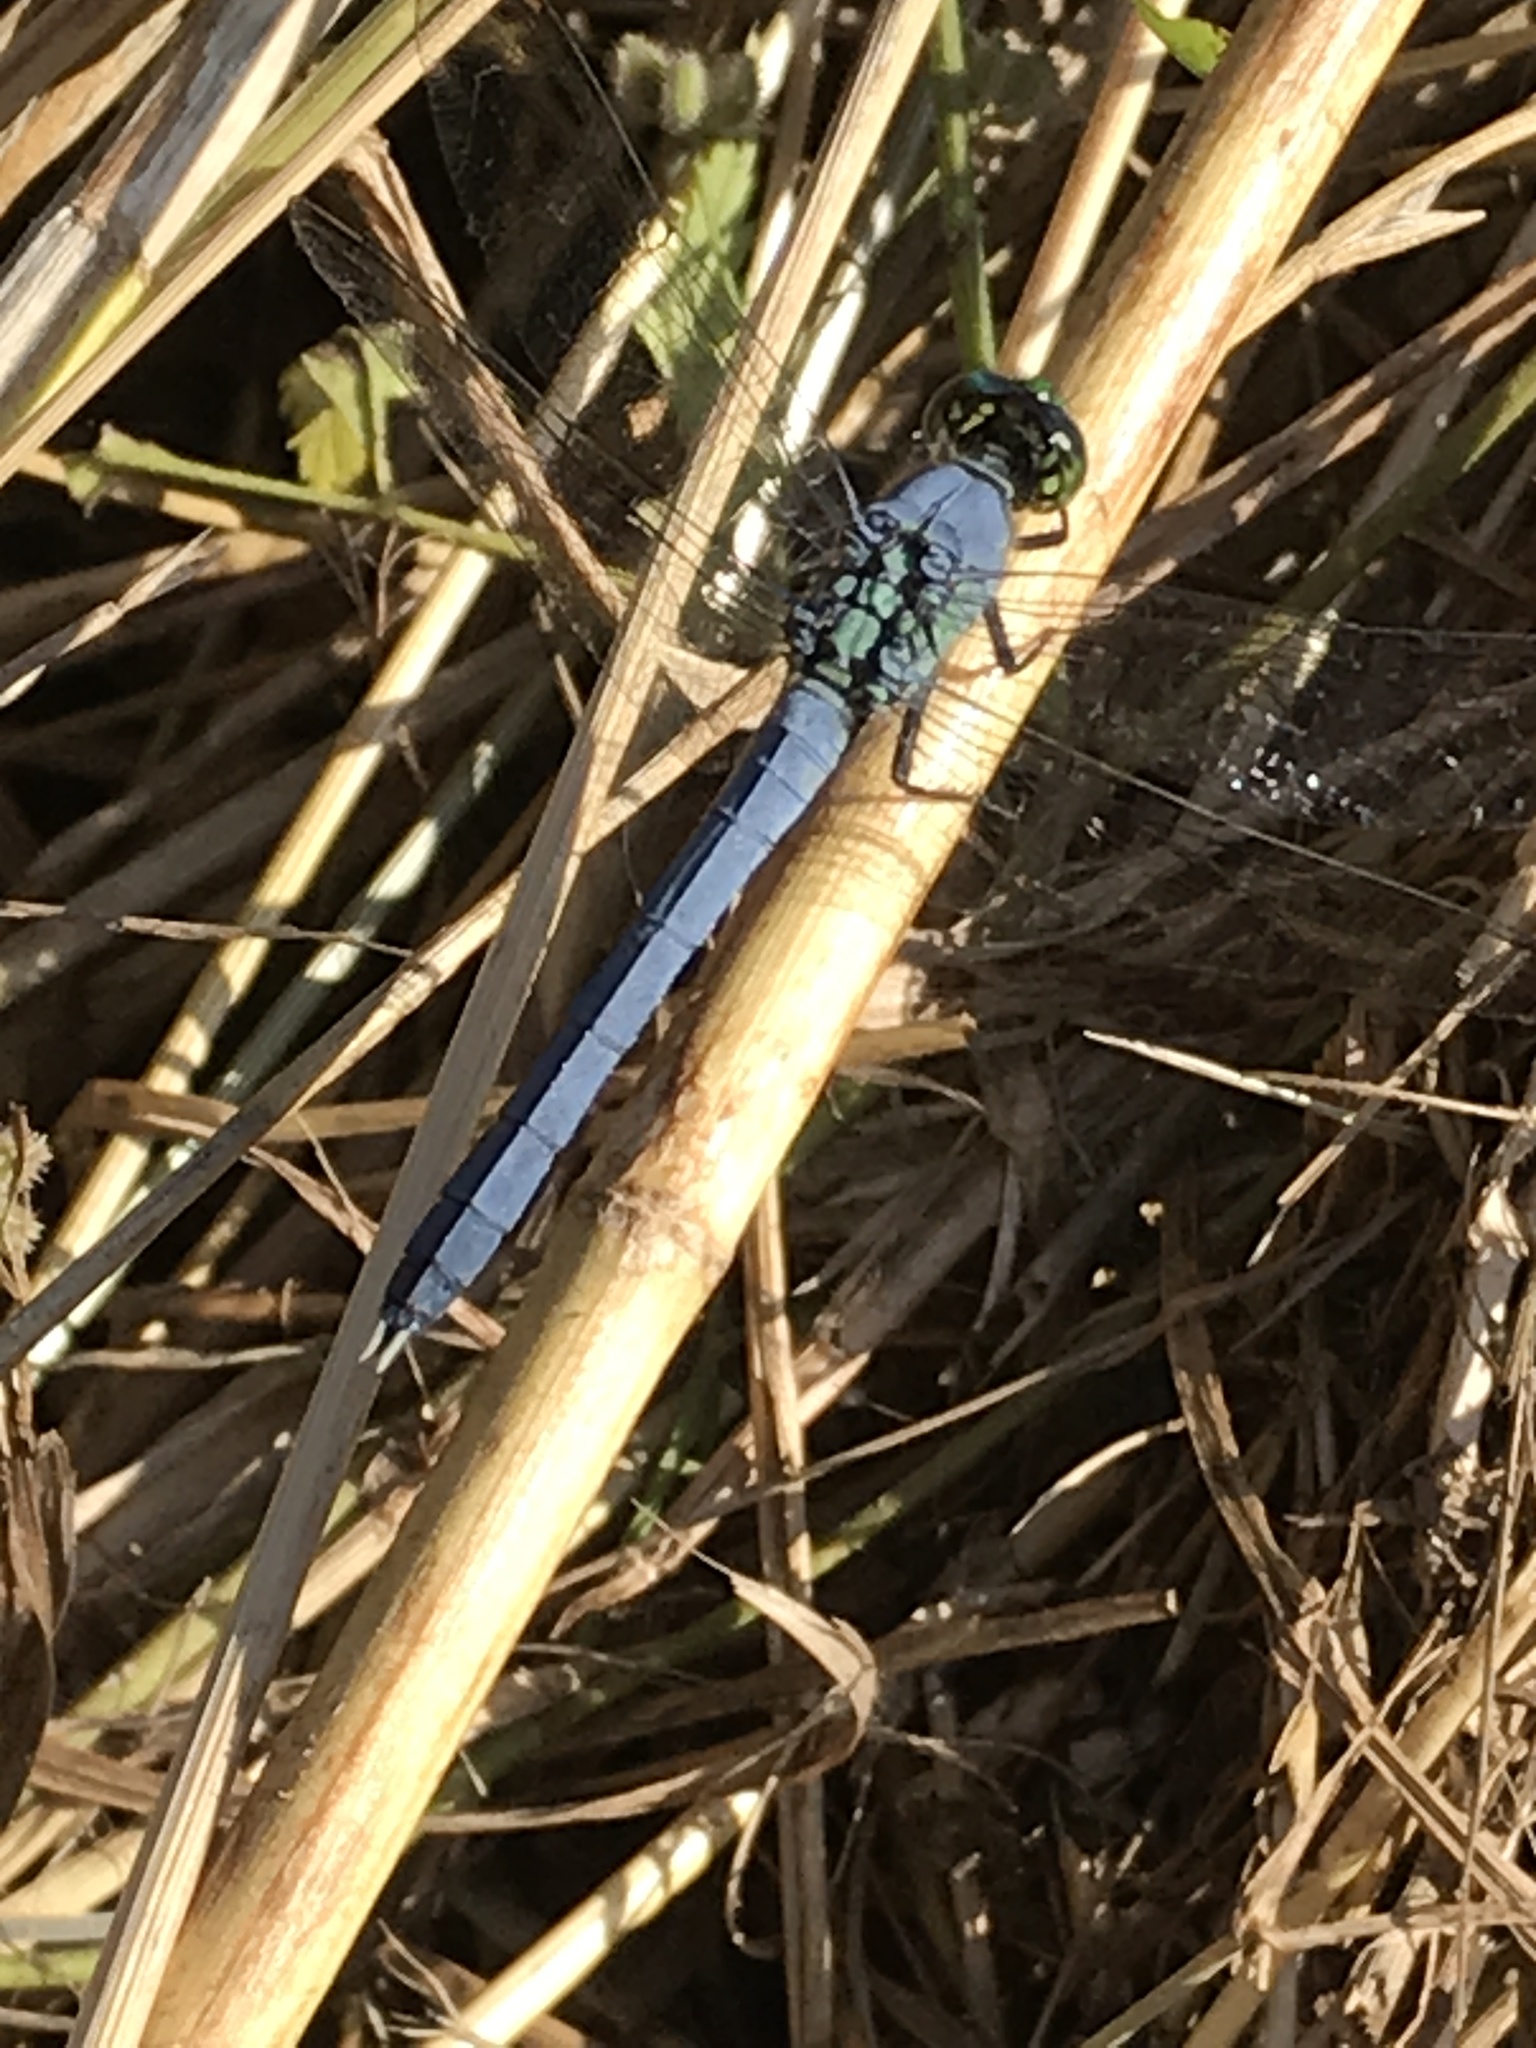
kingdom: Animalia
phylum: Arthropoda
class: Insecta
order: Odonata
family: Libellulidae
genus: Erythemis
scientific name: Erythemis simplicicollis
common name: Eastern pondhawk
